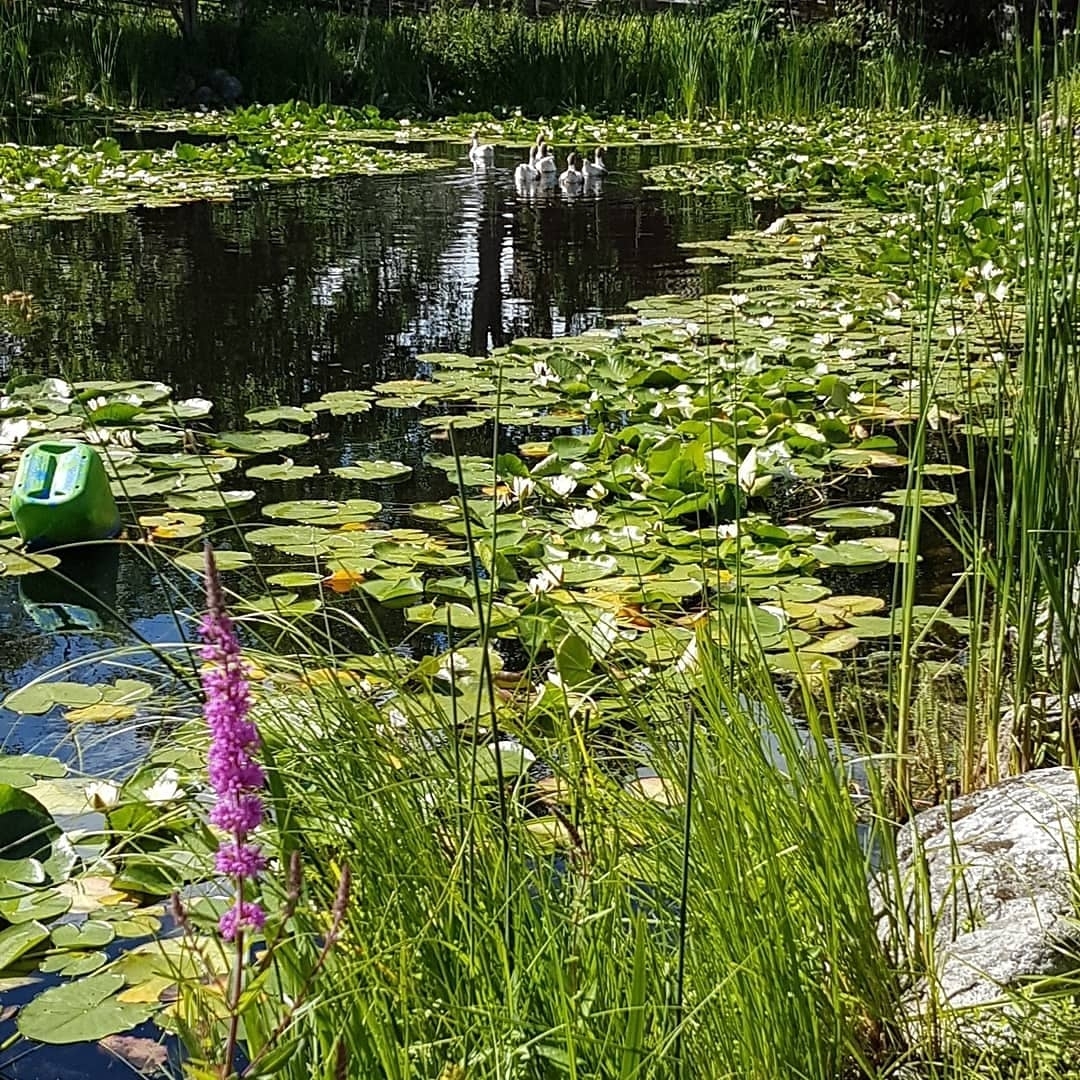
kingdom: Plantae
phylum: Tracheophyta
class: Magnoliopsida
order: Myrtales
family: Lythraceae
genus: Lythrum
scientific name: Lythrum salicaria
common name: Purple loosestrife
